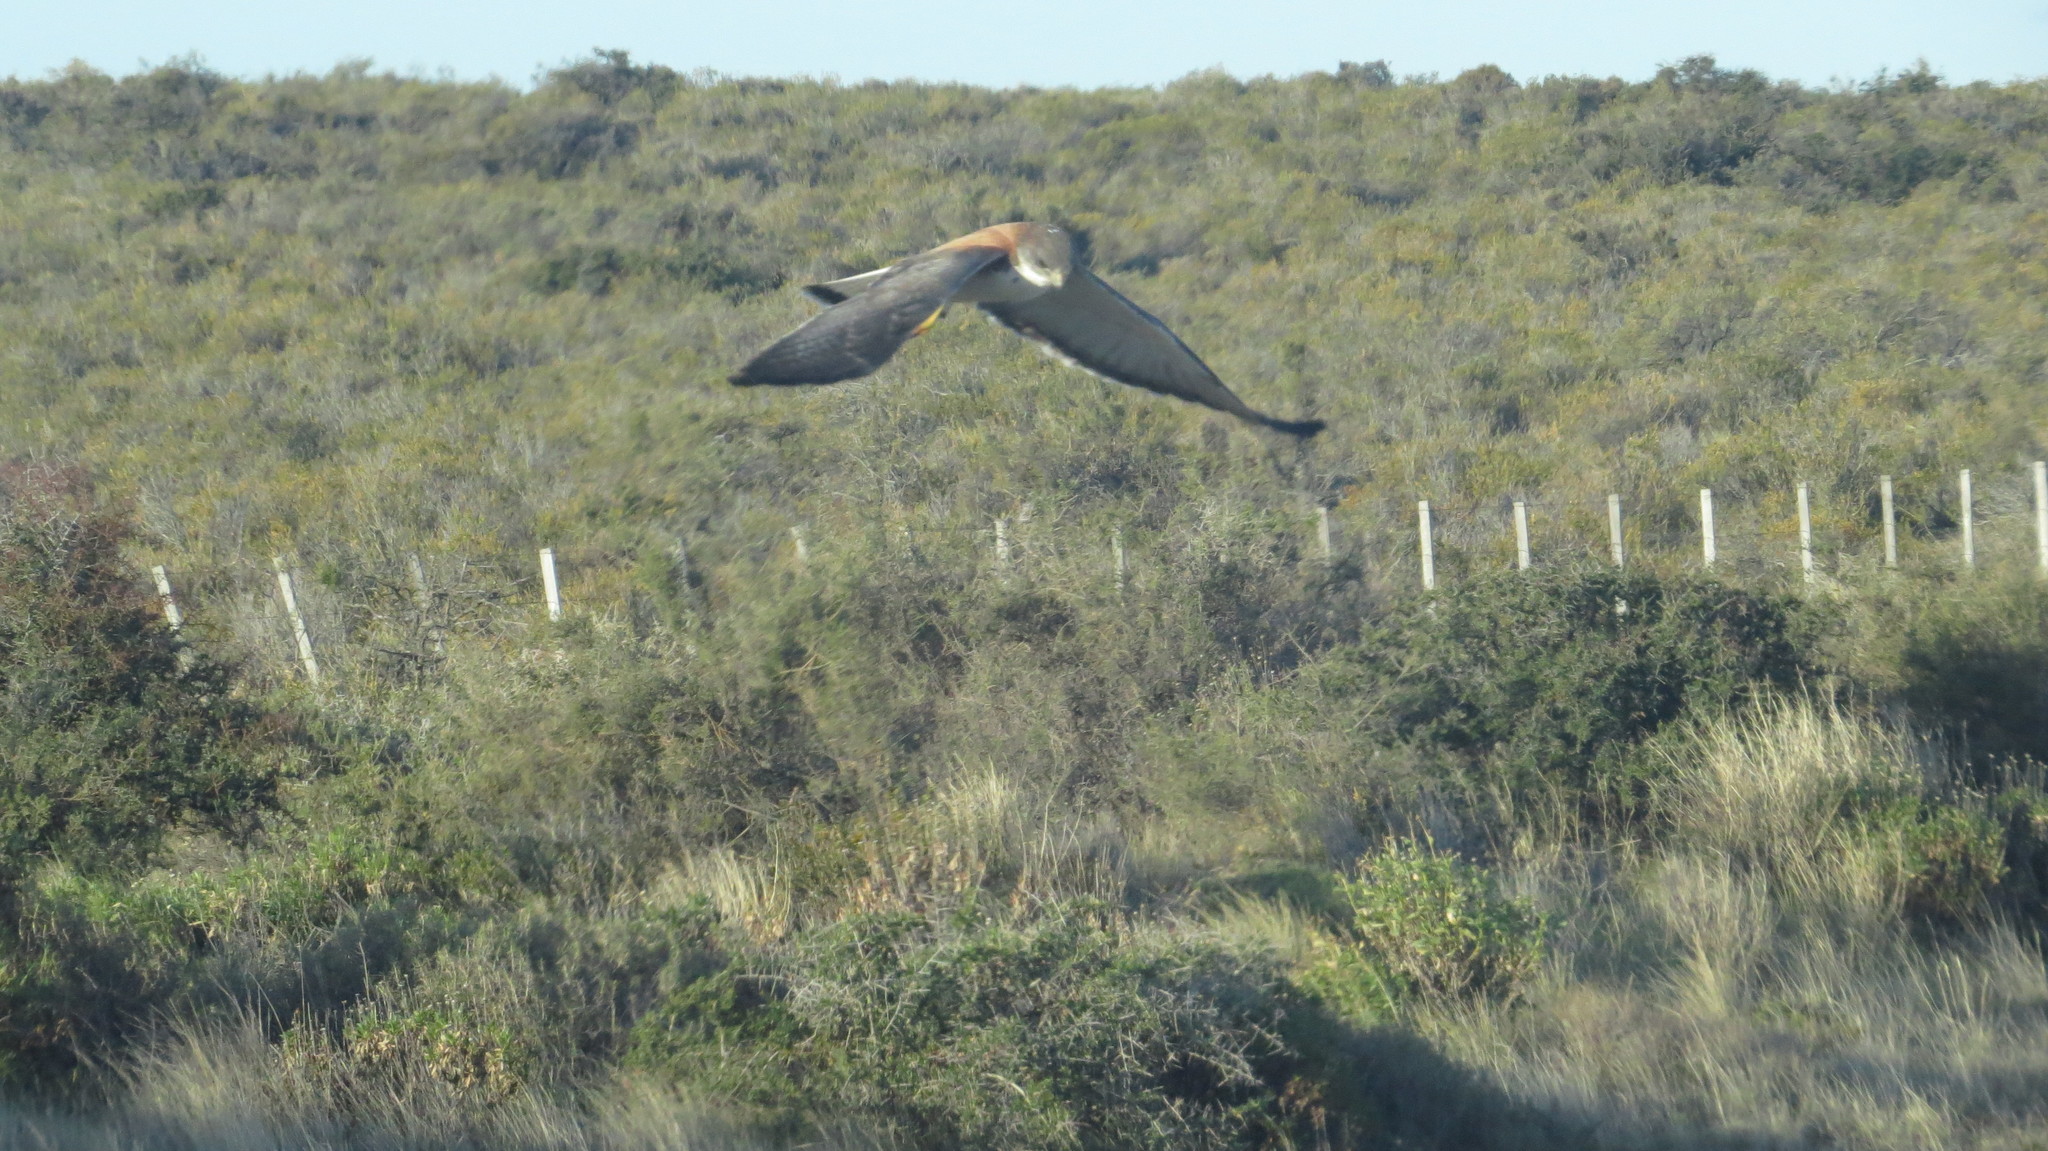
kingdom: Animalia
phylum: Chordata
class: Aves
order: Accipitriformes
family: Accipitridae
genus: Buteo
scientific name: Buteo polyosoma
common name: Variable hawk
